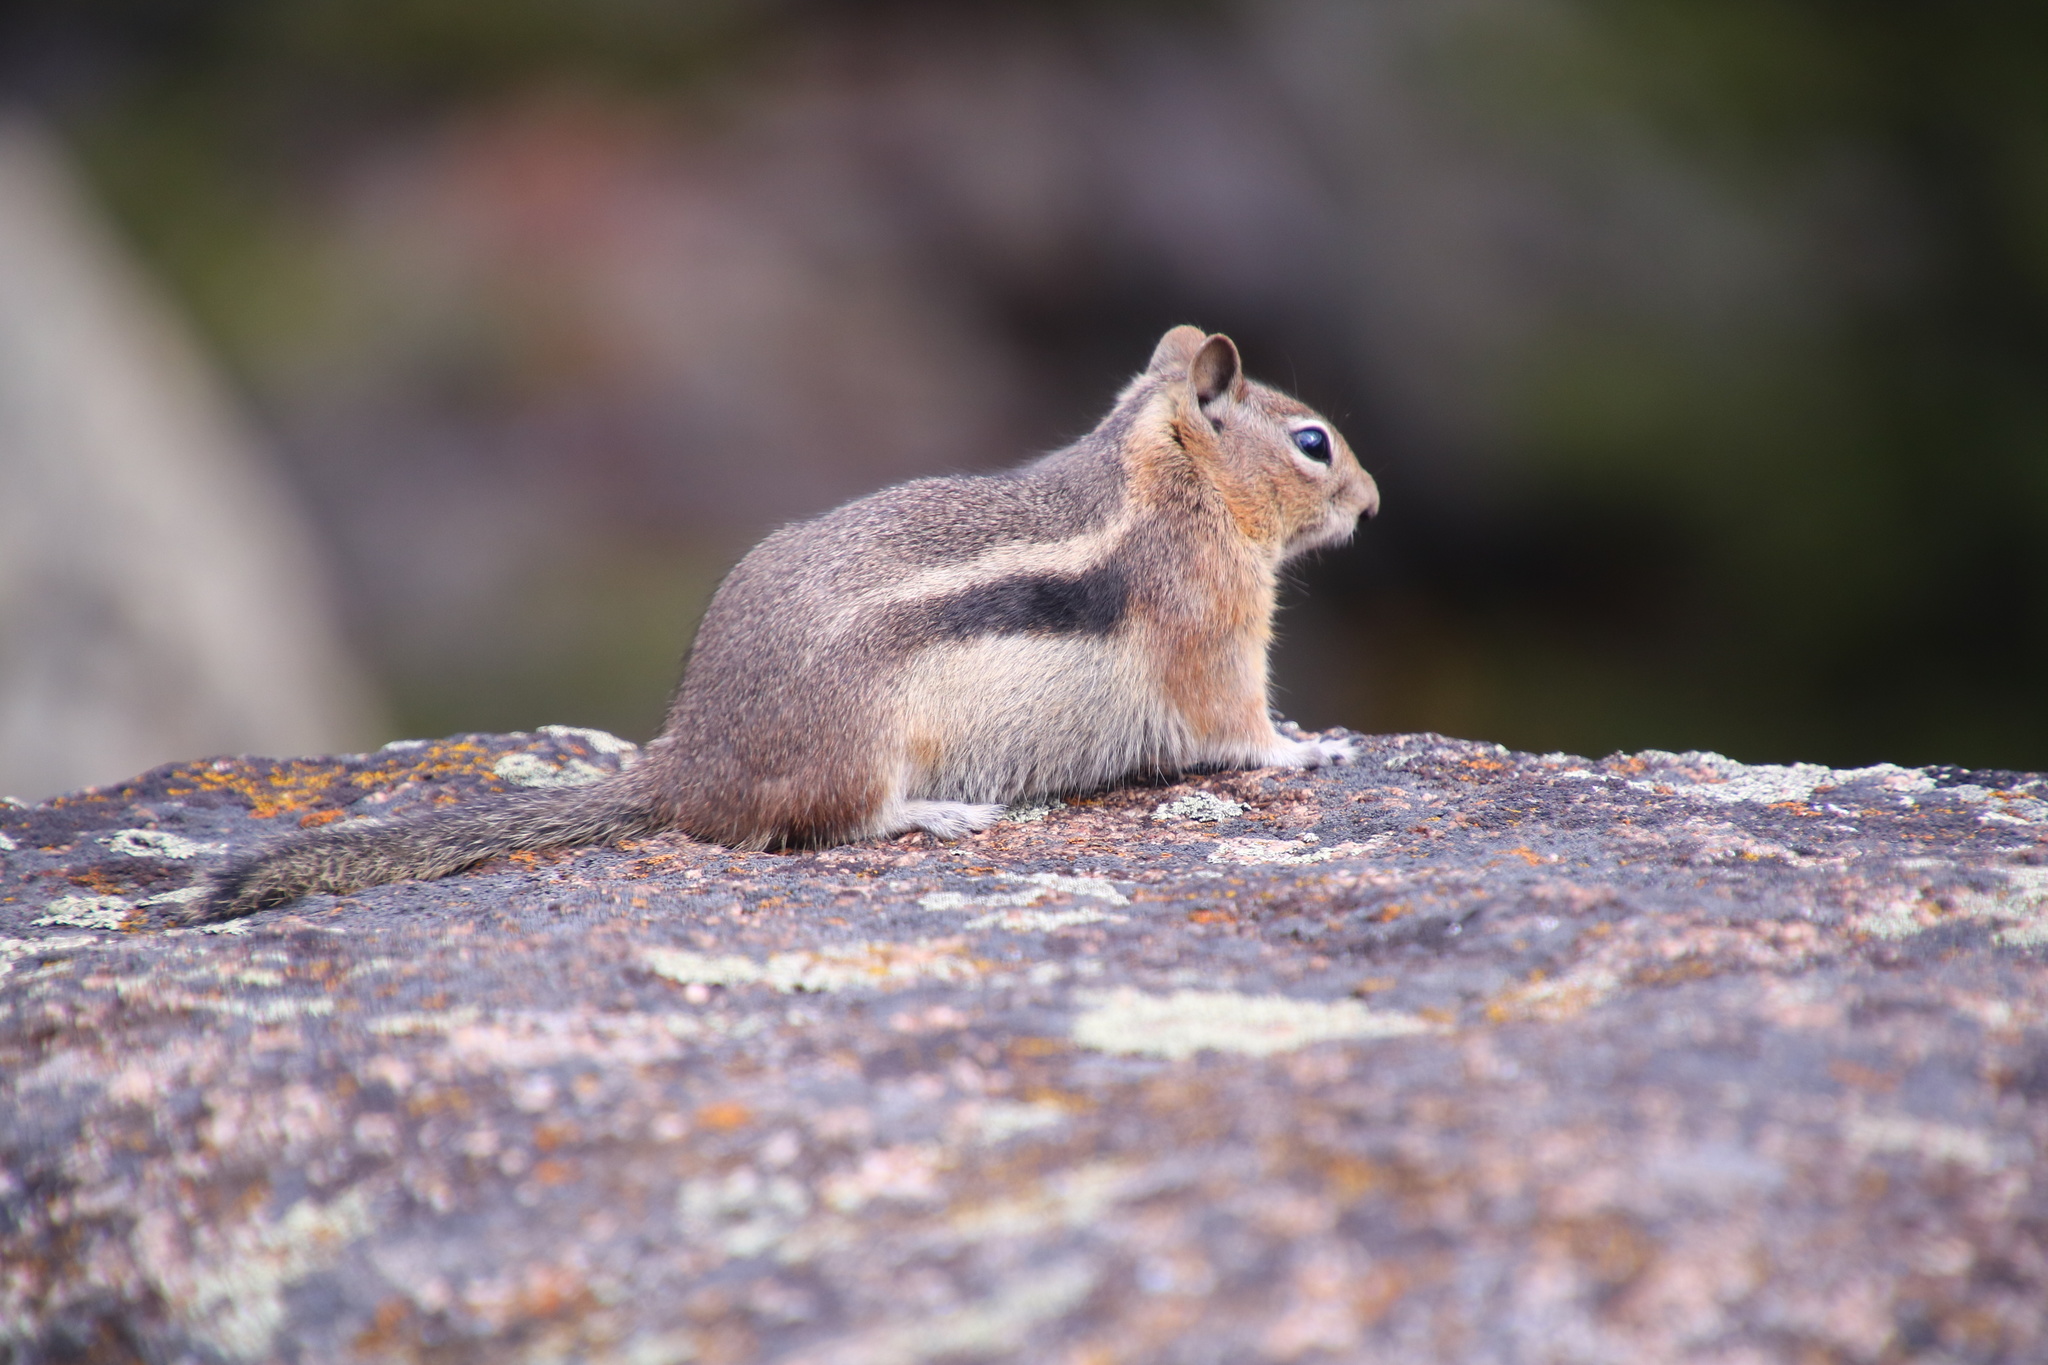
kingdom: Animalia
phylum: Chordata
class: Mammalia
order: Rodentia
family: Sciuridae
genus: Callospermophilus
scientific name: Callospermophilus lateralis
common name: Golden-mantled ground squirrel
